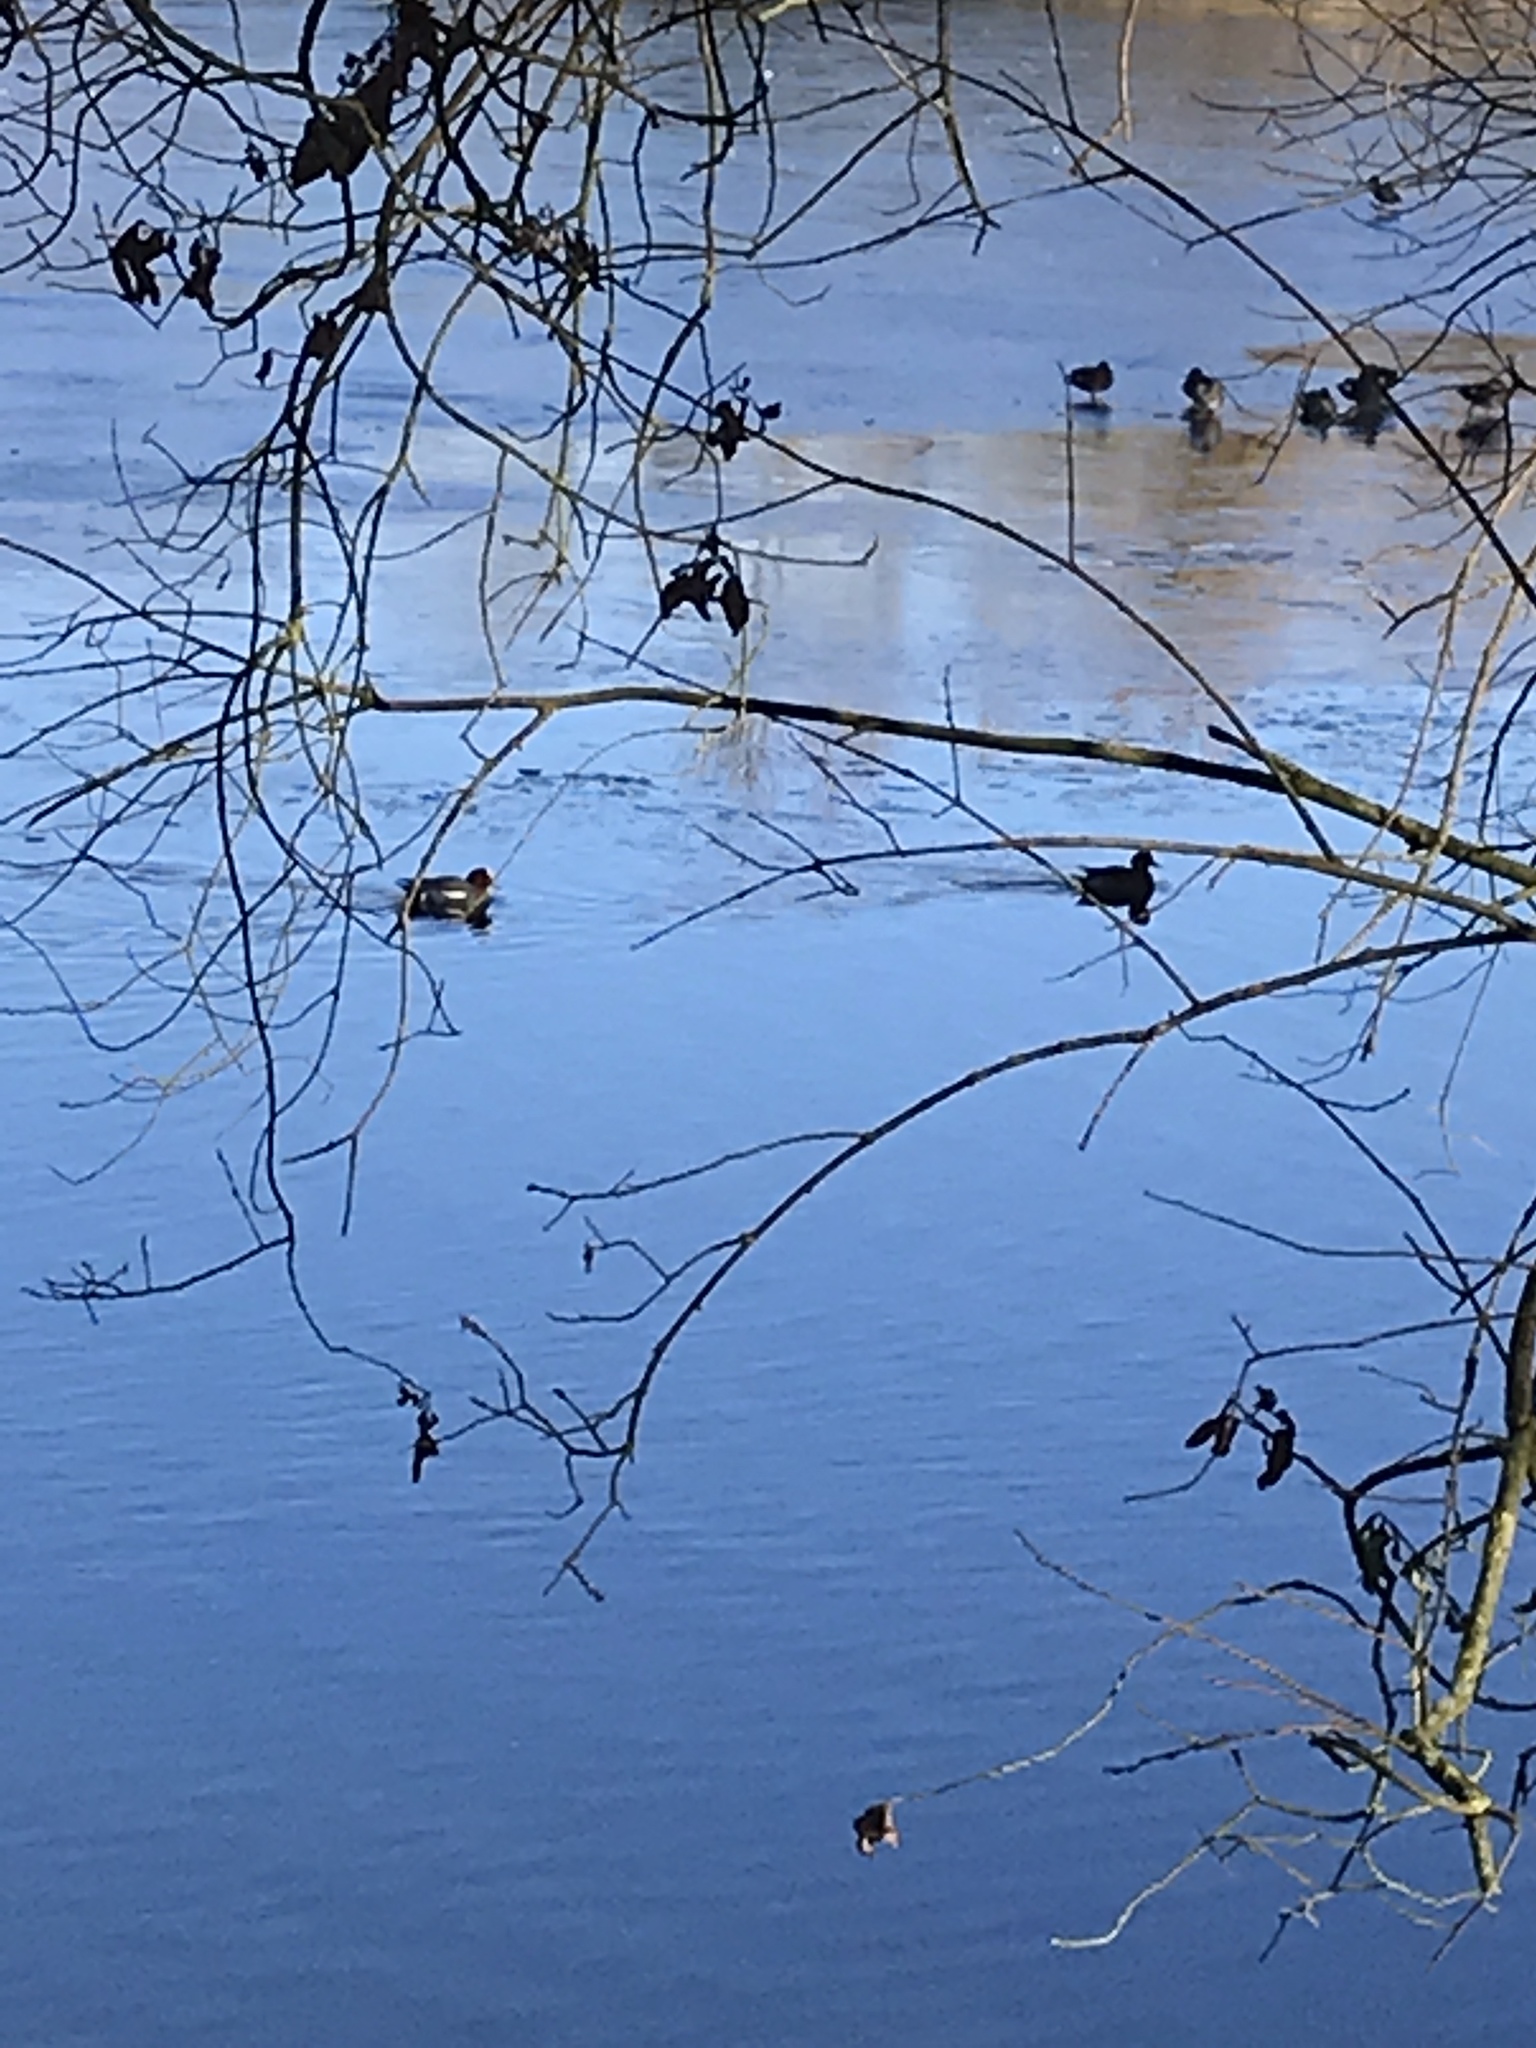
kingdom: Animalia
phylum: Chordata
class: Aves
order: Anseriformes
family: Anatidae
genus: Mareca
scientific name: Mareca penelope
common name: Eurasian wigeon
